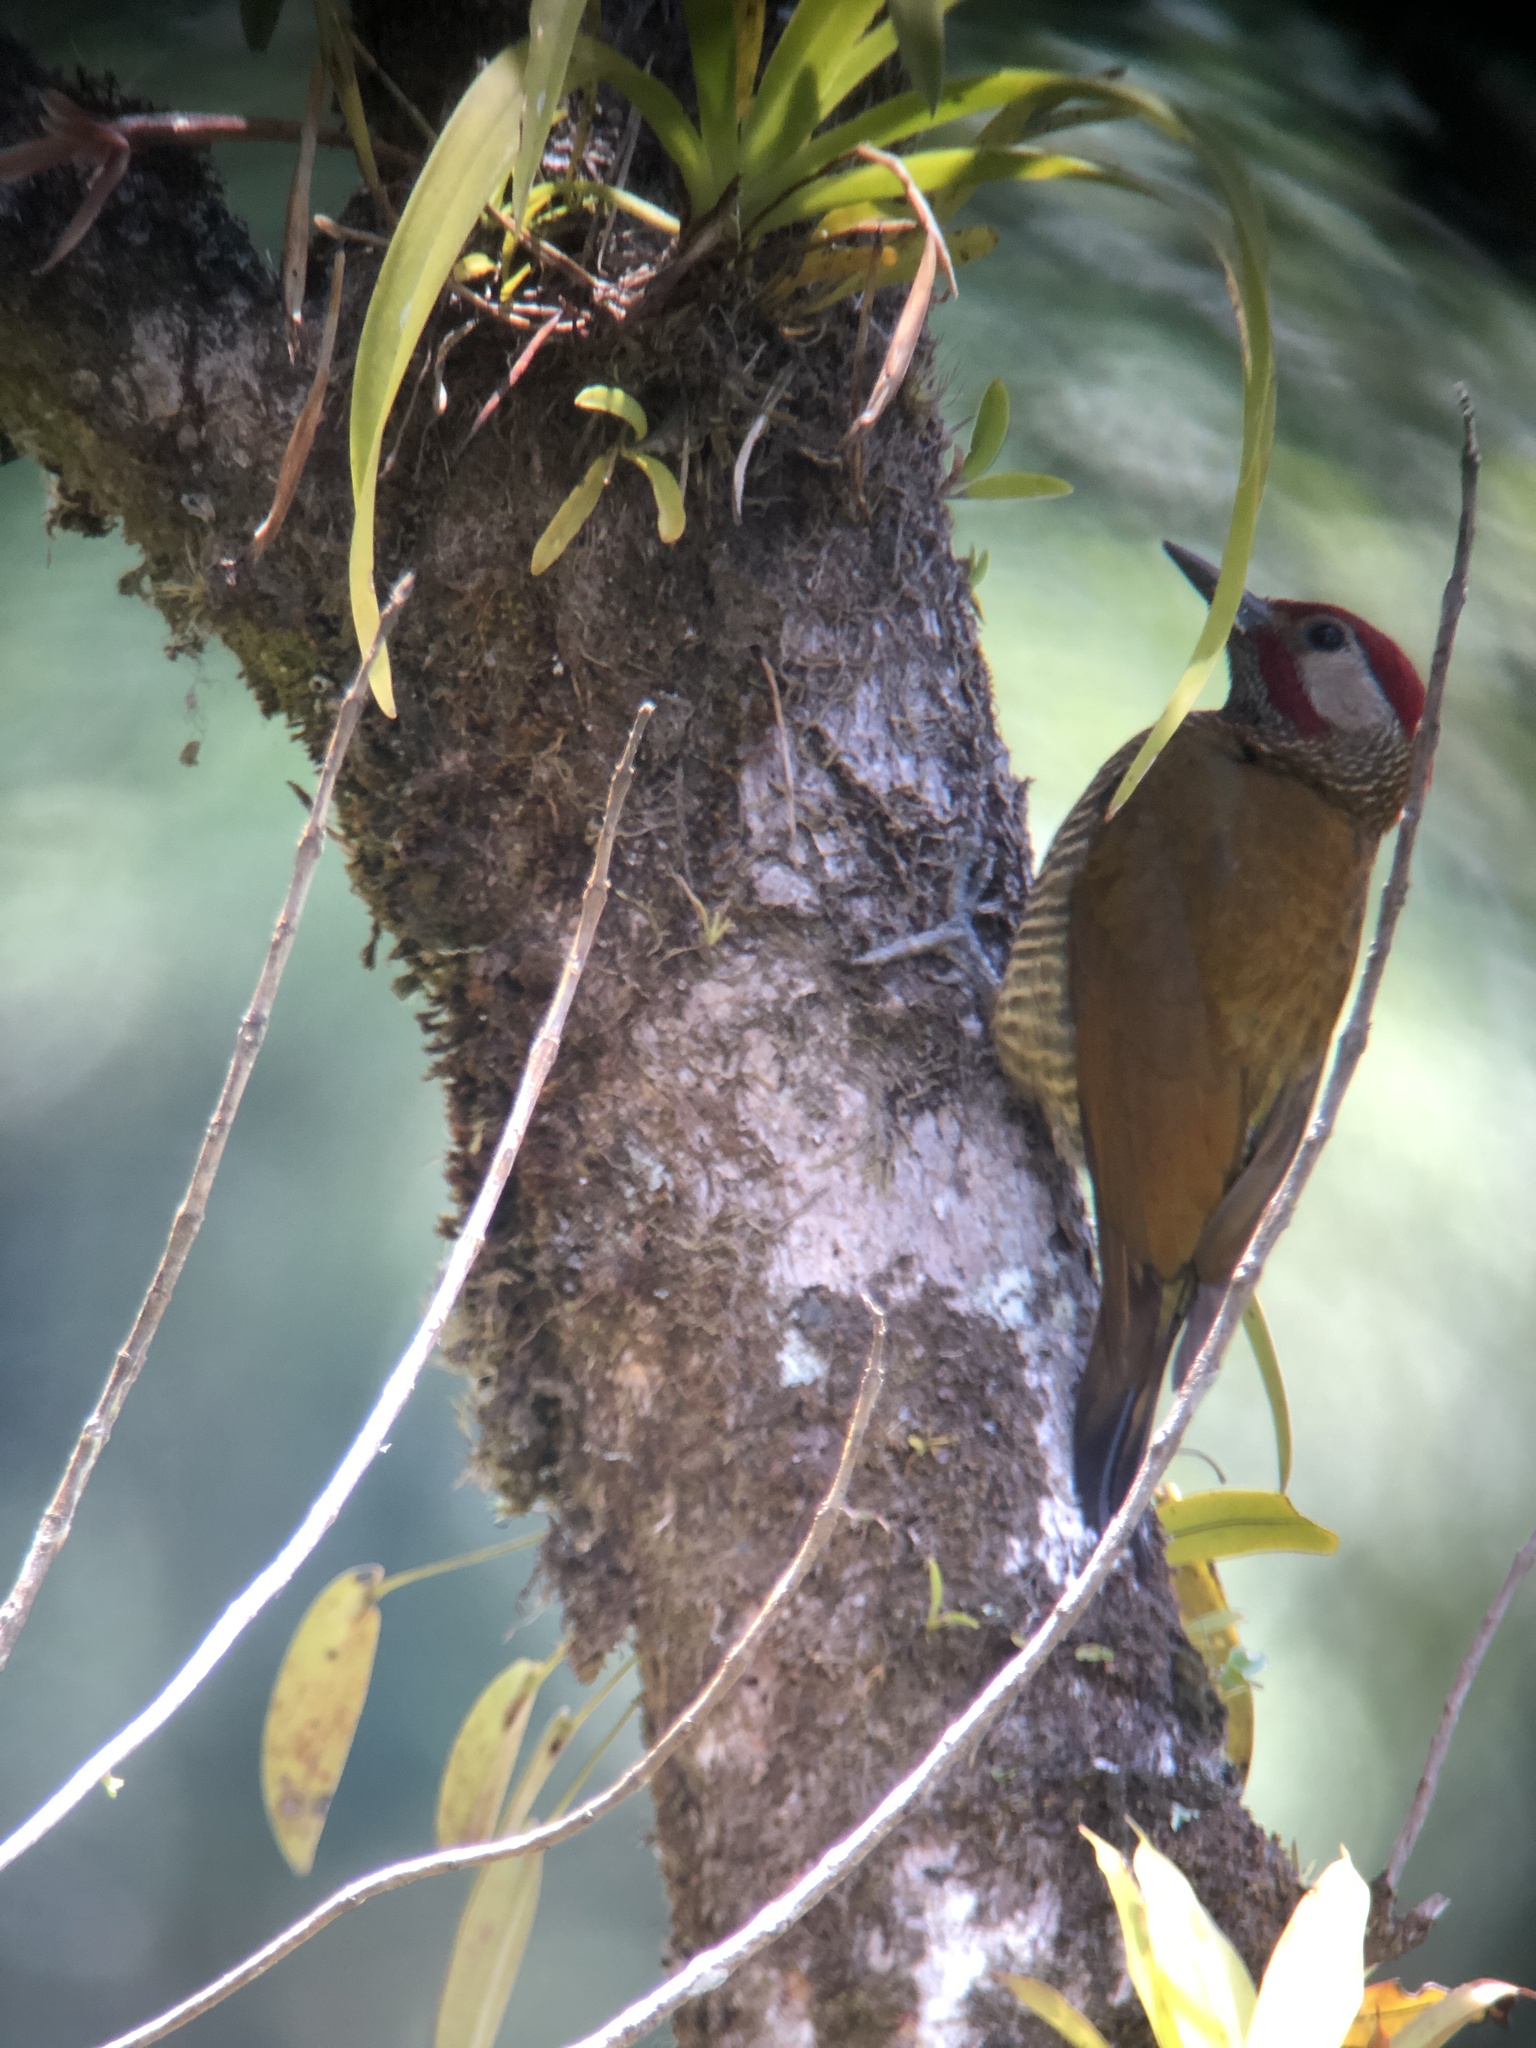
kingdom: Animalia
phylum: Chordata
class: Aves
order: Piciformes
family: Picidae
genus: Colaptes
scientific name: Colaptes rubiginosus
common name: Golden-olive woodpecker
